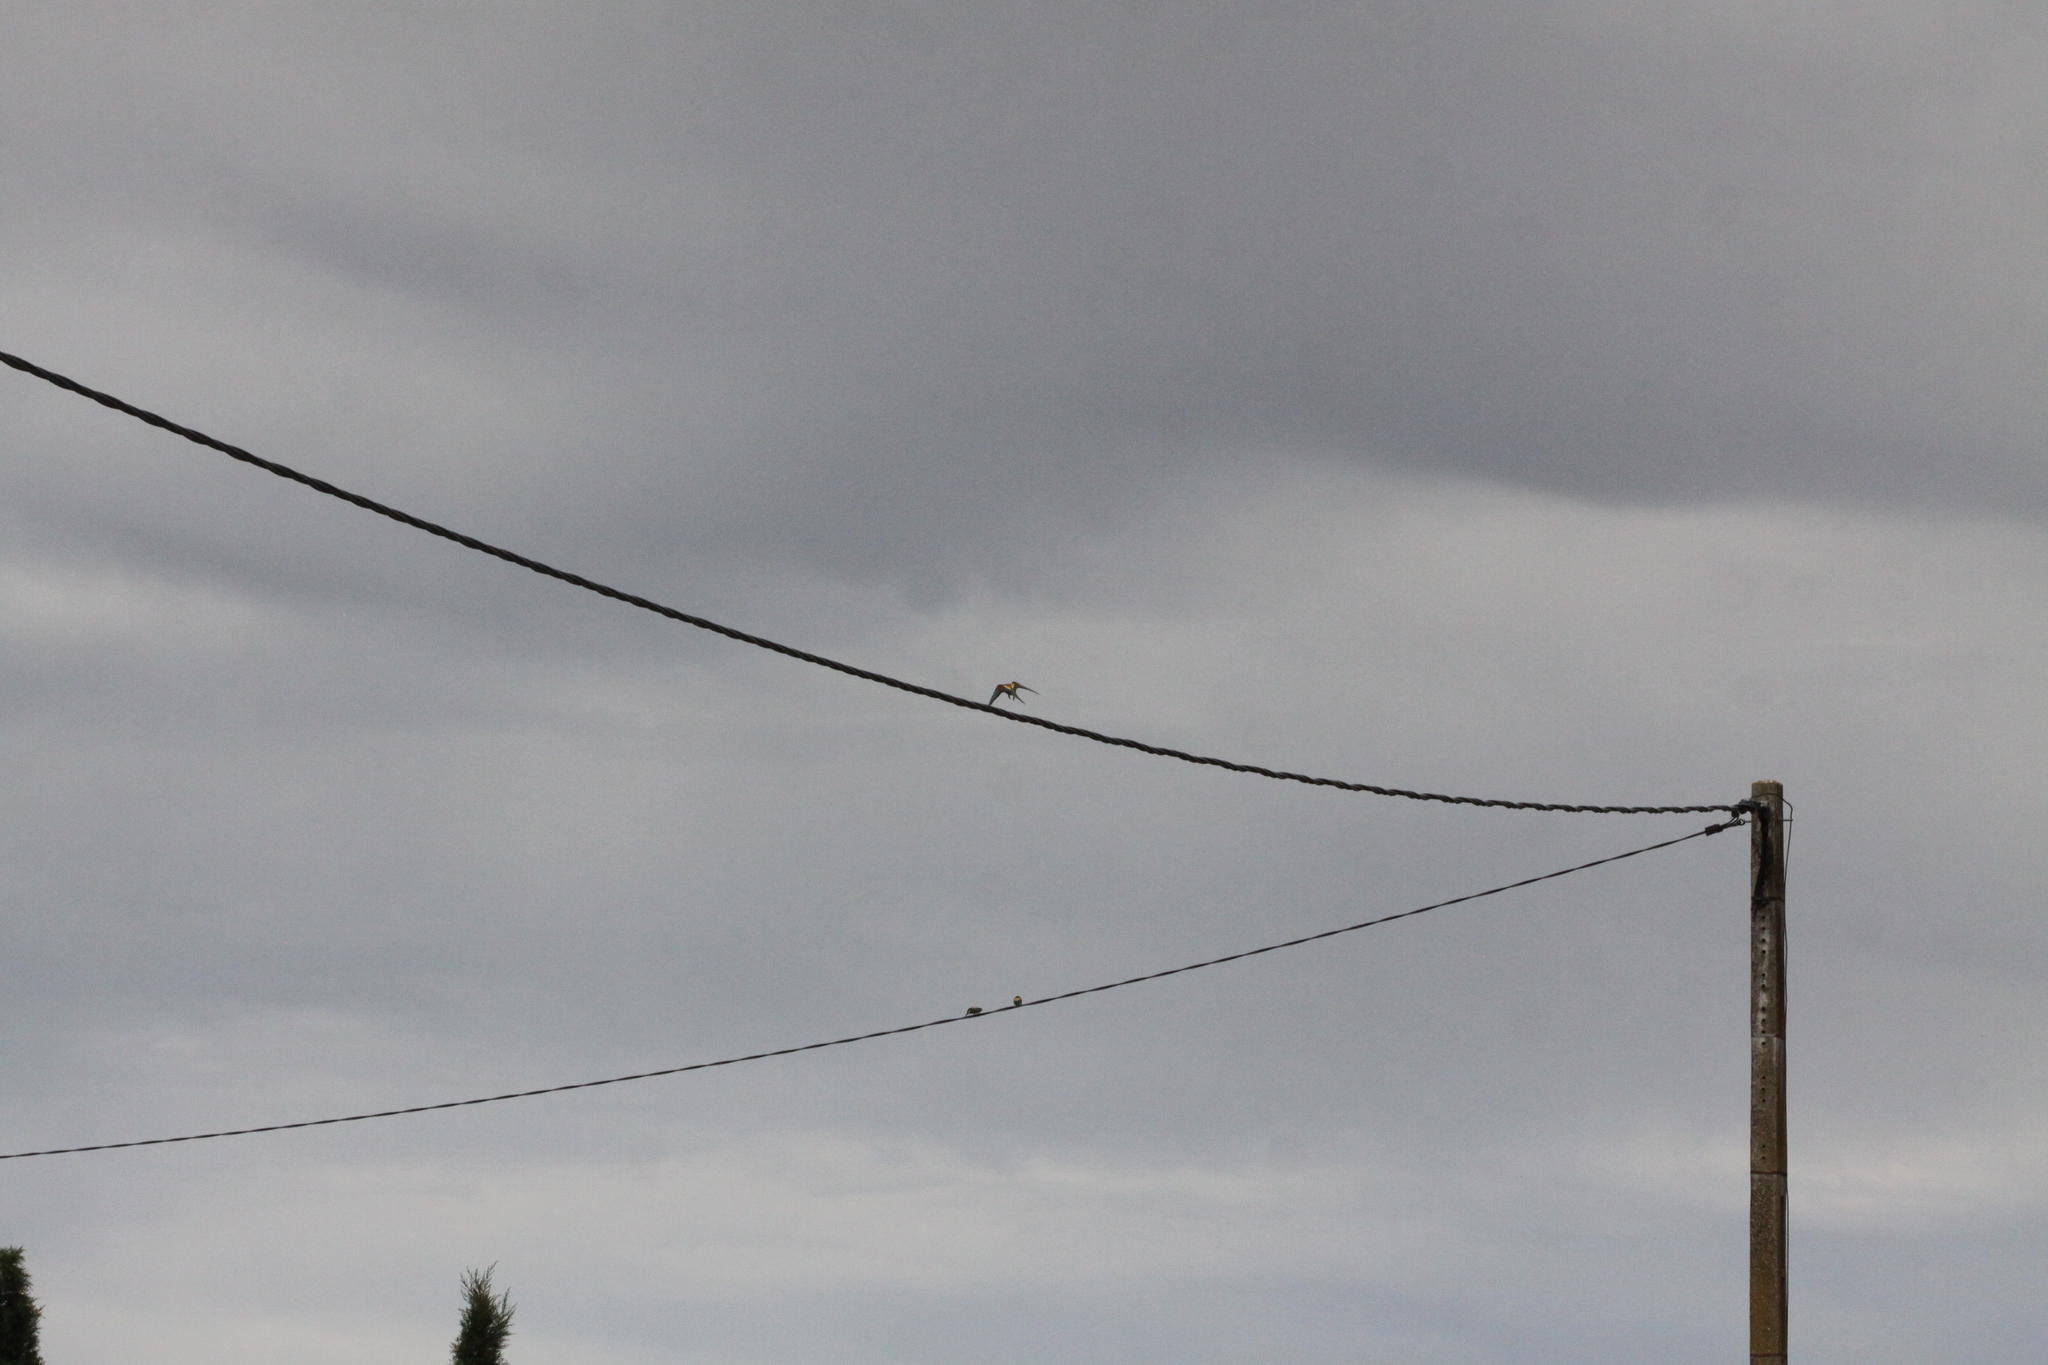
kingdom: Animalia
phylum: Chordata
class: Aves
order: Coraciiformes
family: Meropidae
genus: Merops
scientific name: Merops apiaster
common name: European bee-eater
